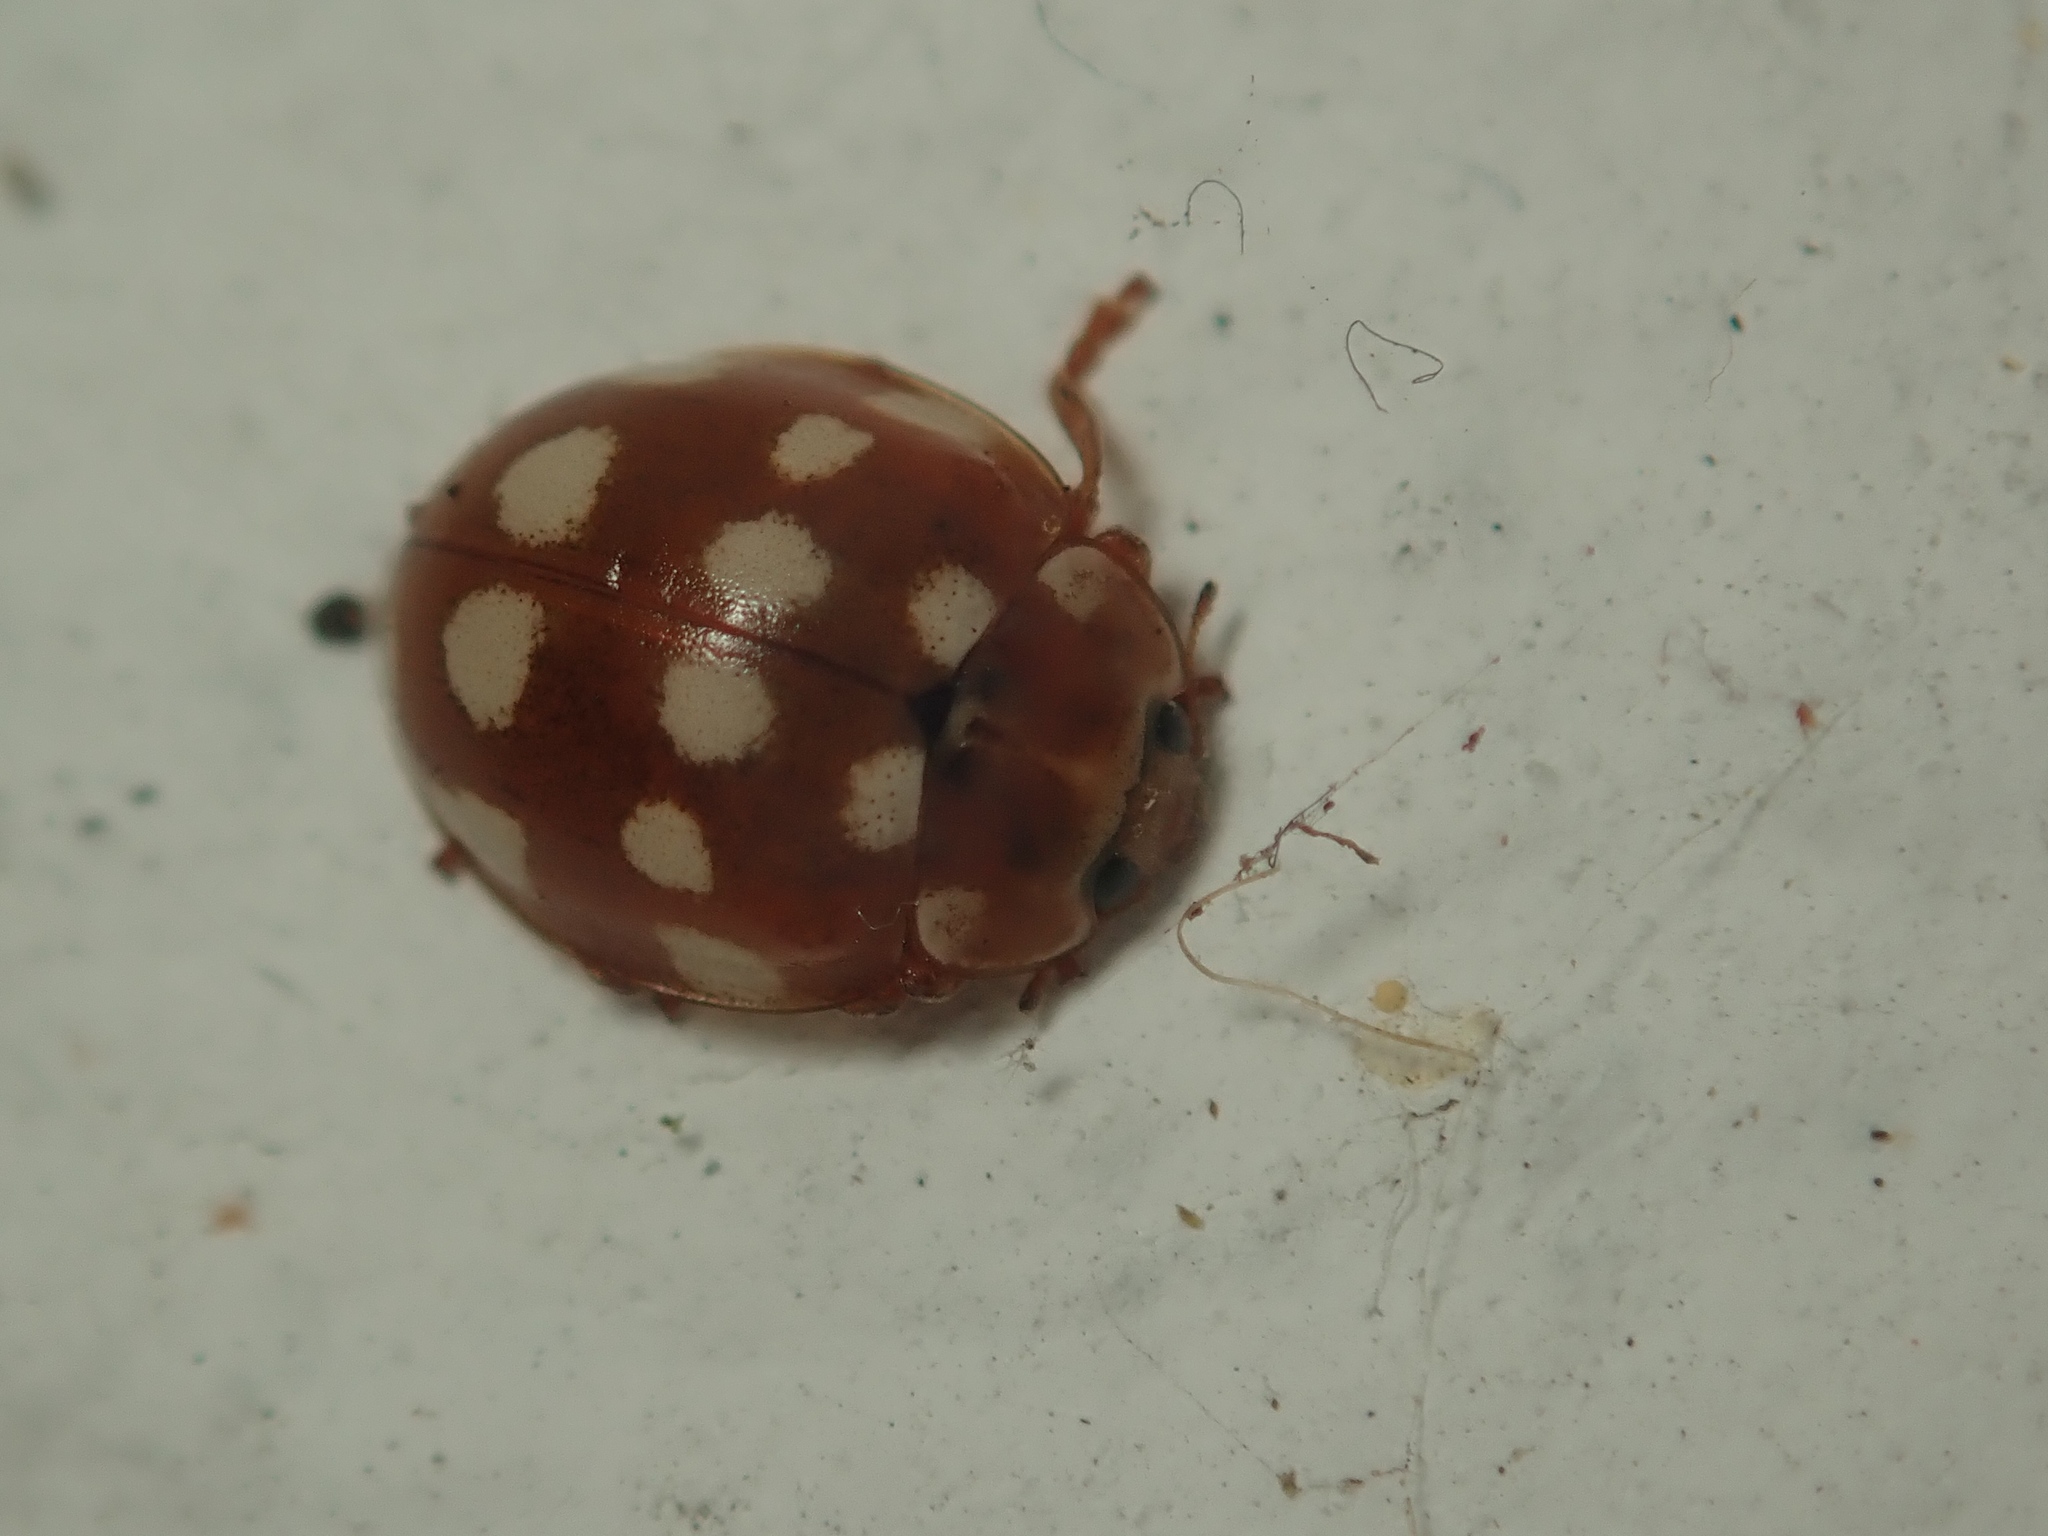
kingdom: Animalia
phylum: Arthropoda
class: Insecta
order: Coleoptera
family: Coccinellidae
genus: Calvia
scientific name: Calvia quatuordecimguttata
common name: Cream-spot ladybird
